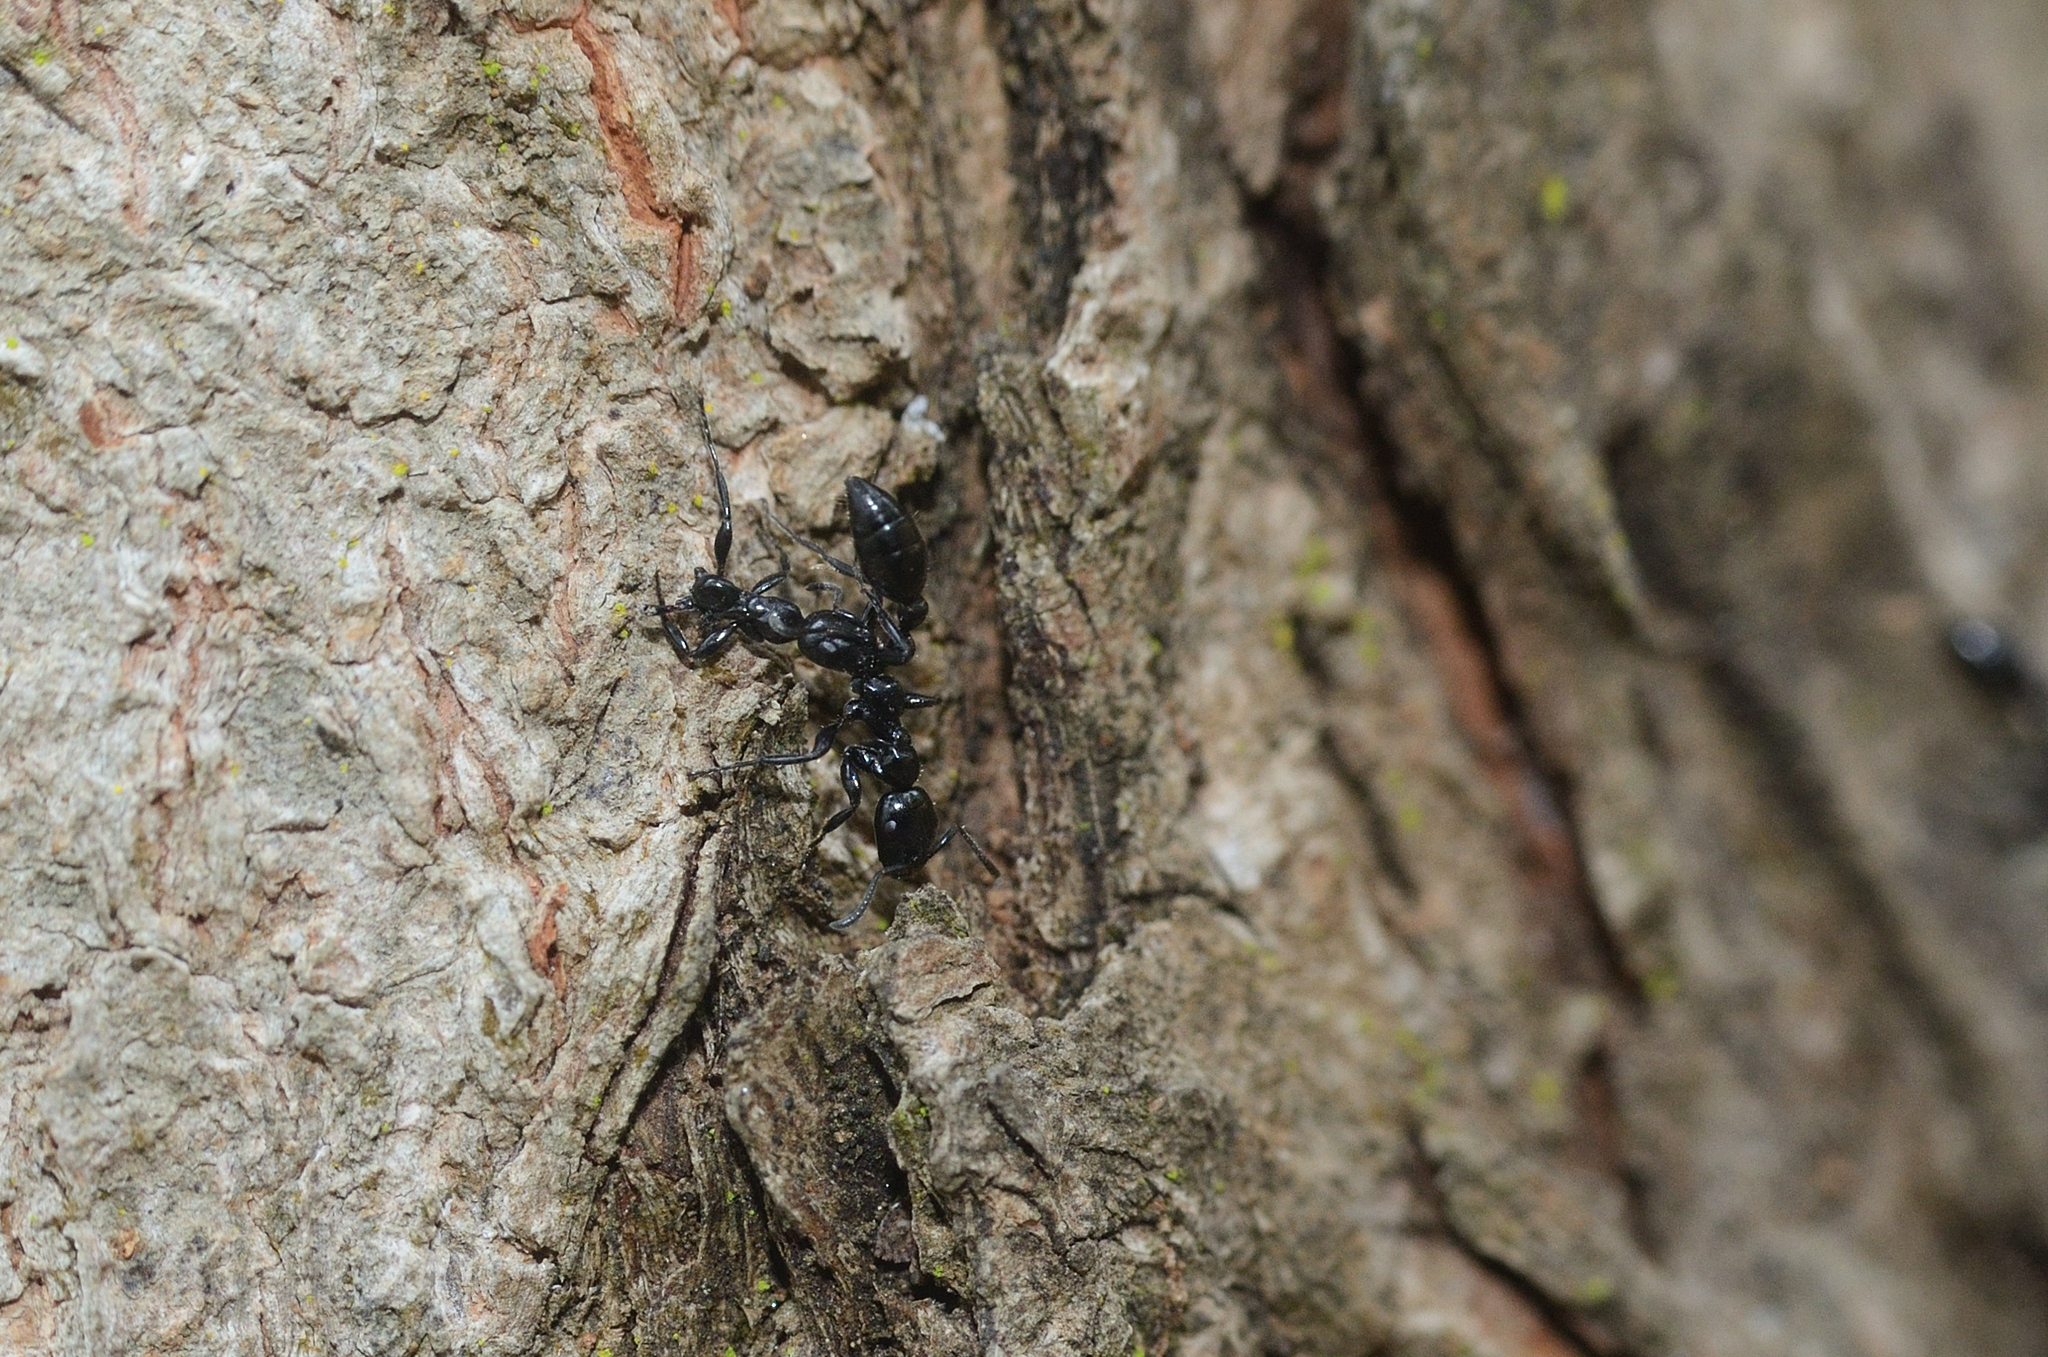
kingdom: Animalia
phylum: Arthropoda
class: Insecta
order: Hymenoptera
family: Formicidae
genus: Tetraponera
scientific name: Tetraponera nigra
